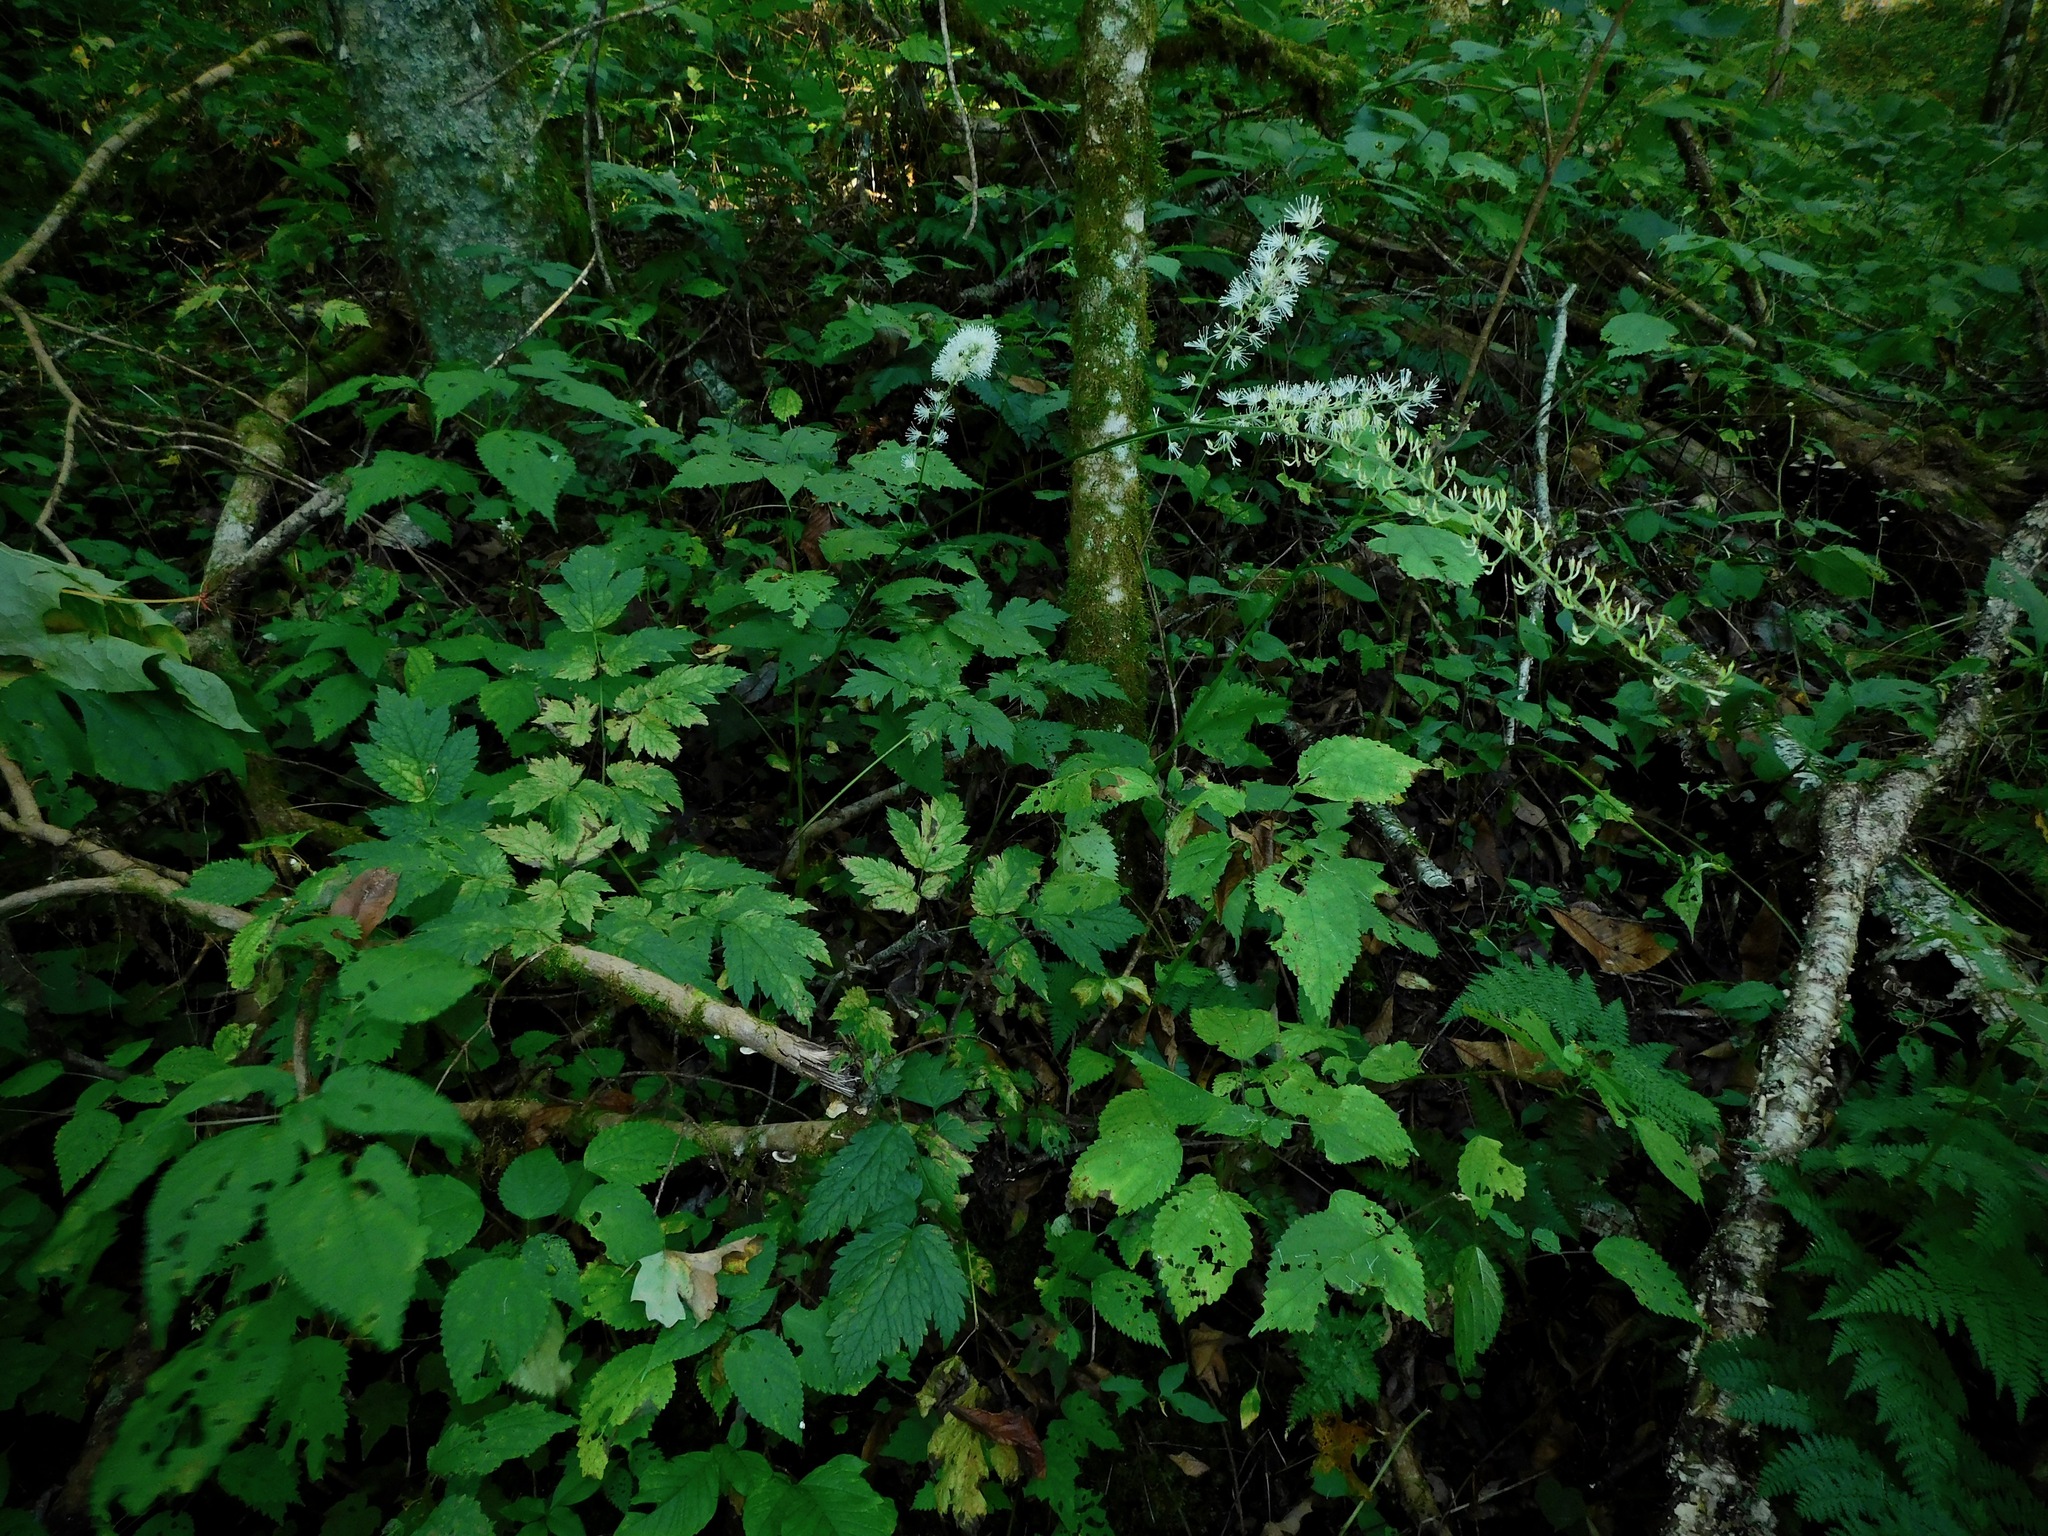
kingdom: Plantae
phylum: Tracheophyta
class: Magnoliopsida
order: Ranunculales
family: Ranunculaceae
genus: Actaea
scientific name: Actaea podocarpa
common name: American bugbane
